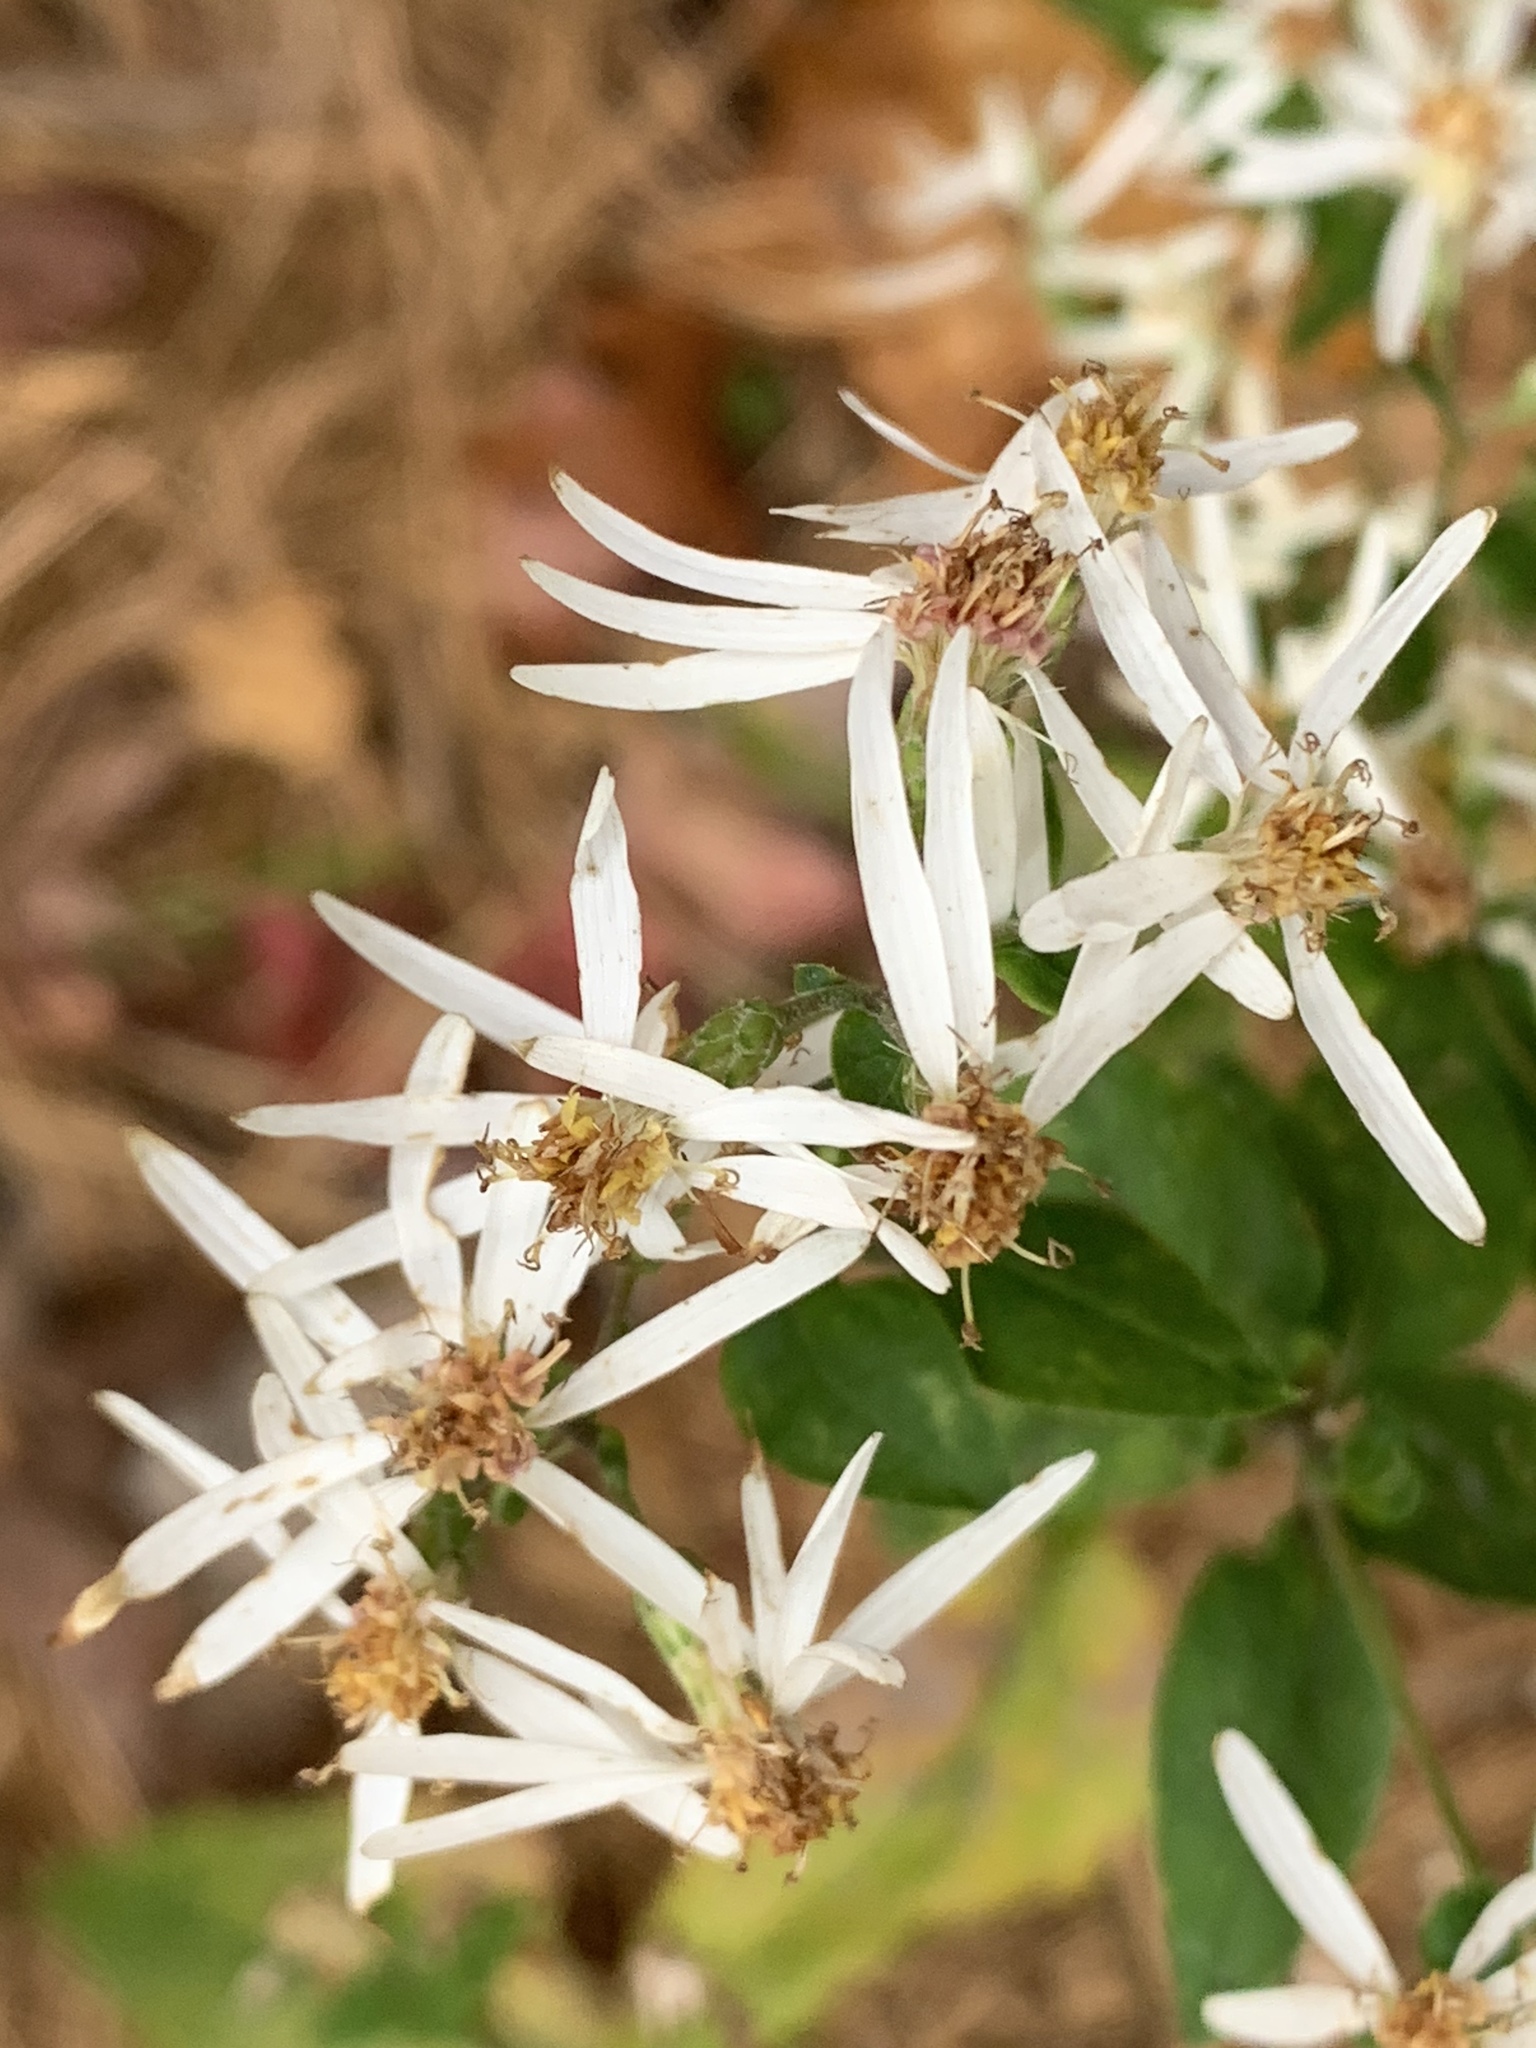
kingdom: Plantae
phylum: Tracheophyta
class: Magnoliopsida
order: Asterales
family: Asteraceae
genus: Eurybia
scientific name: Eurybia divaricata
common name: White wood aster
